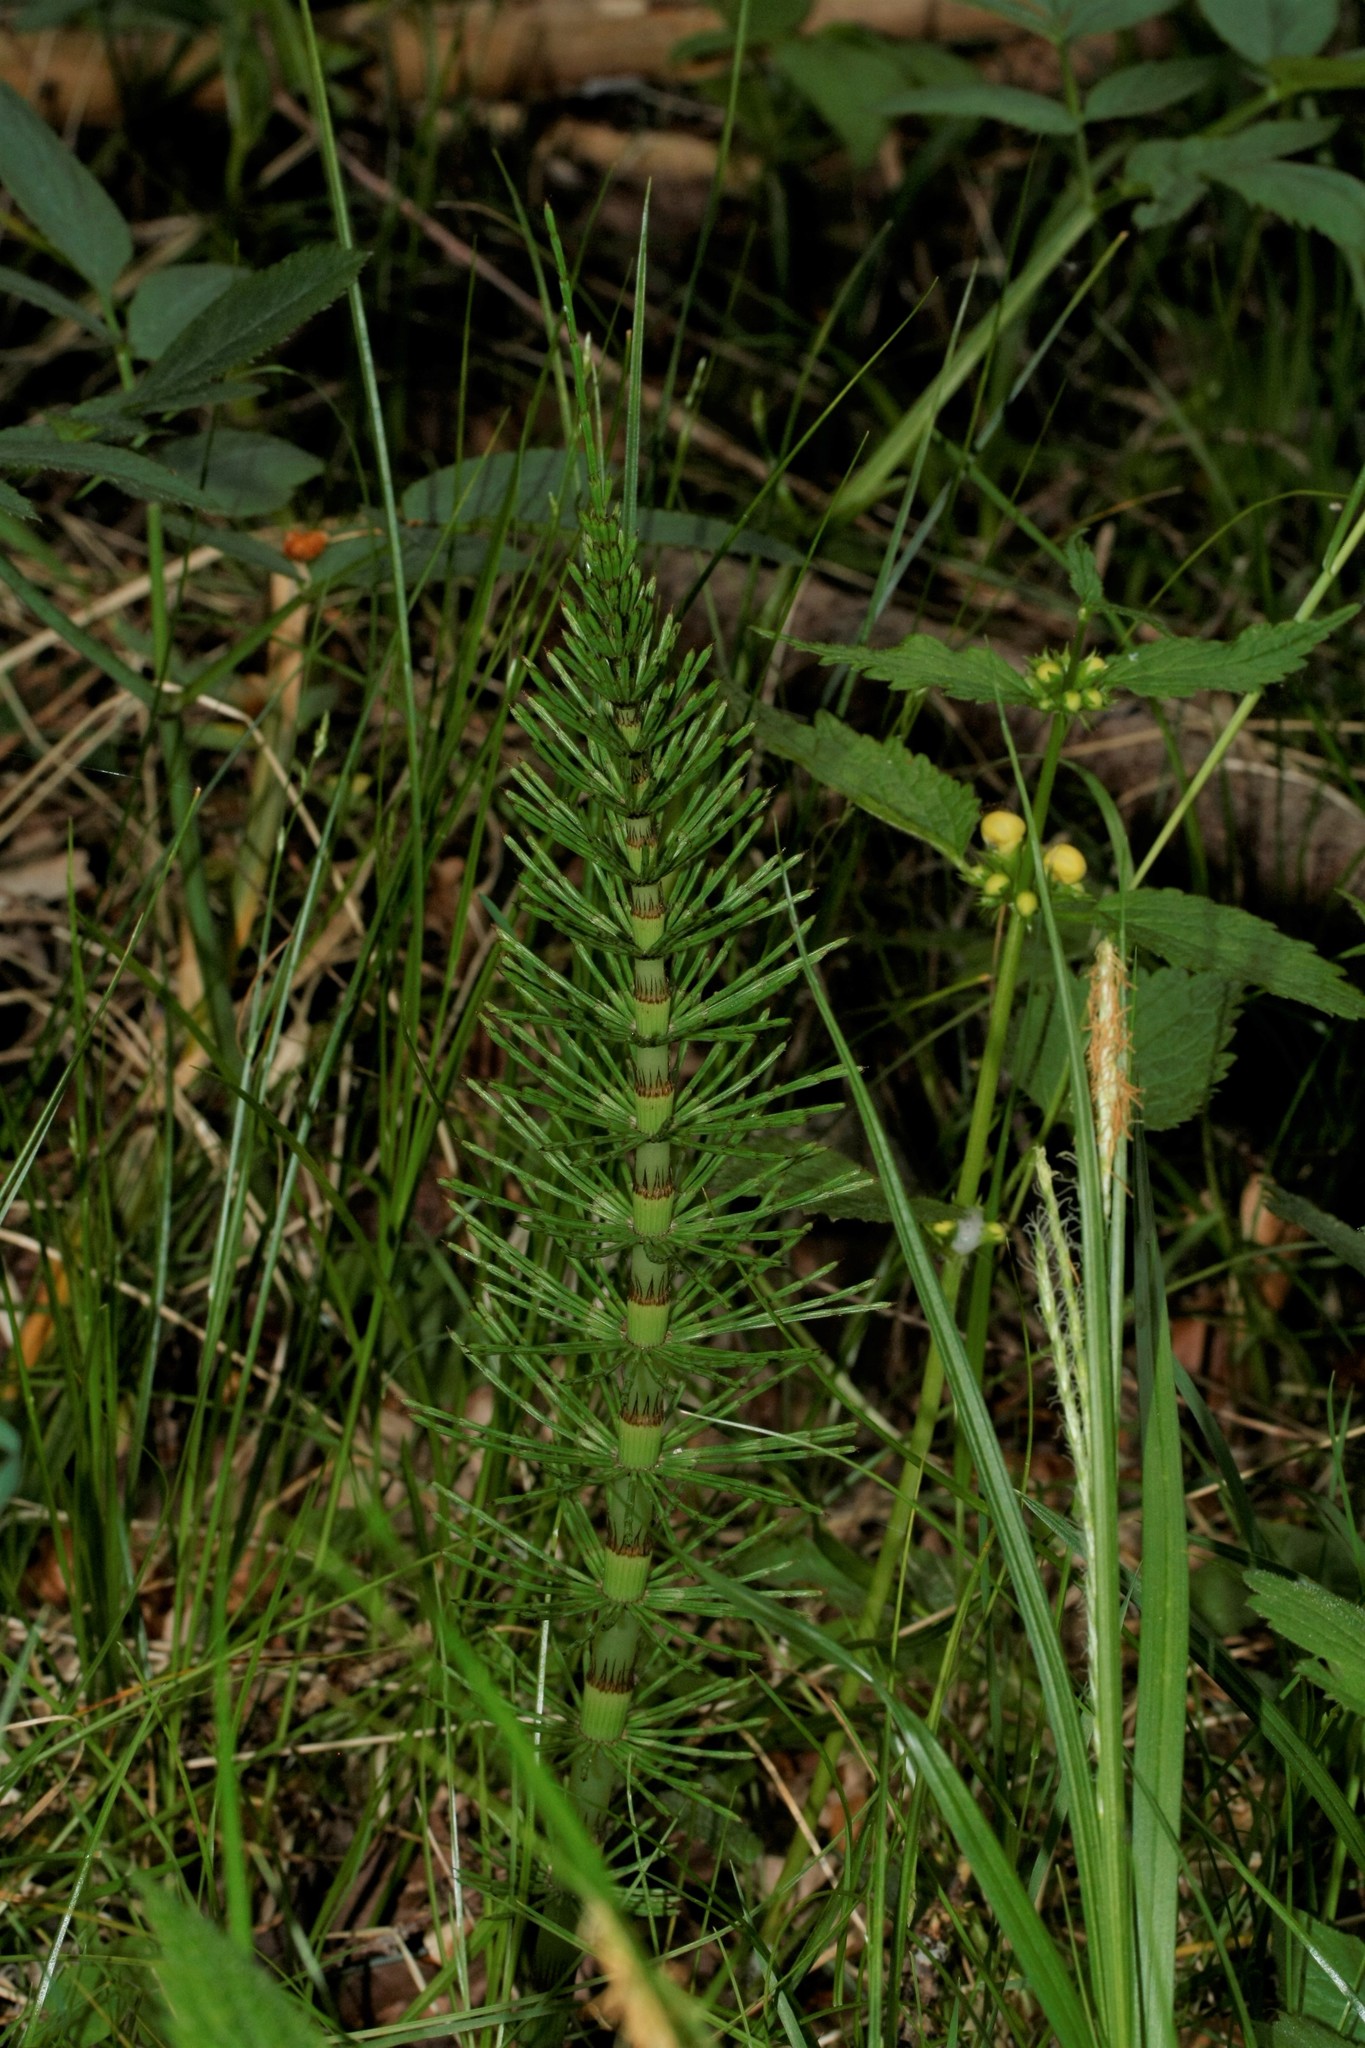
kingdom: Plantae
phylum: Tracheophyta
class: Polypodiopsida
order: Equisetales
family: Equisetaceae
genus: Equisetum
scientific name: Equisetum telmateia
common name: Great horsetail
